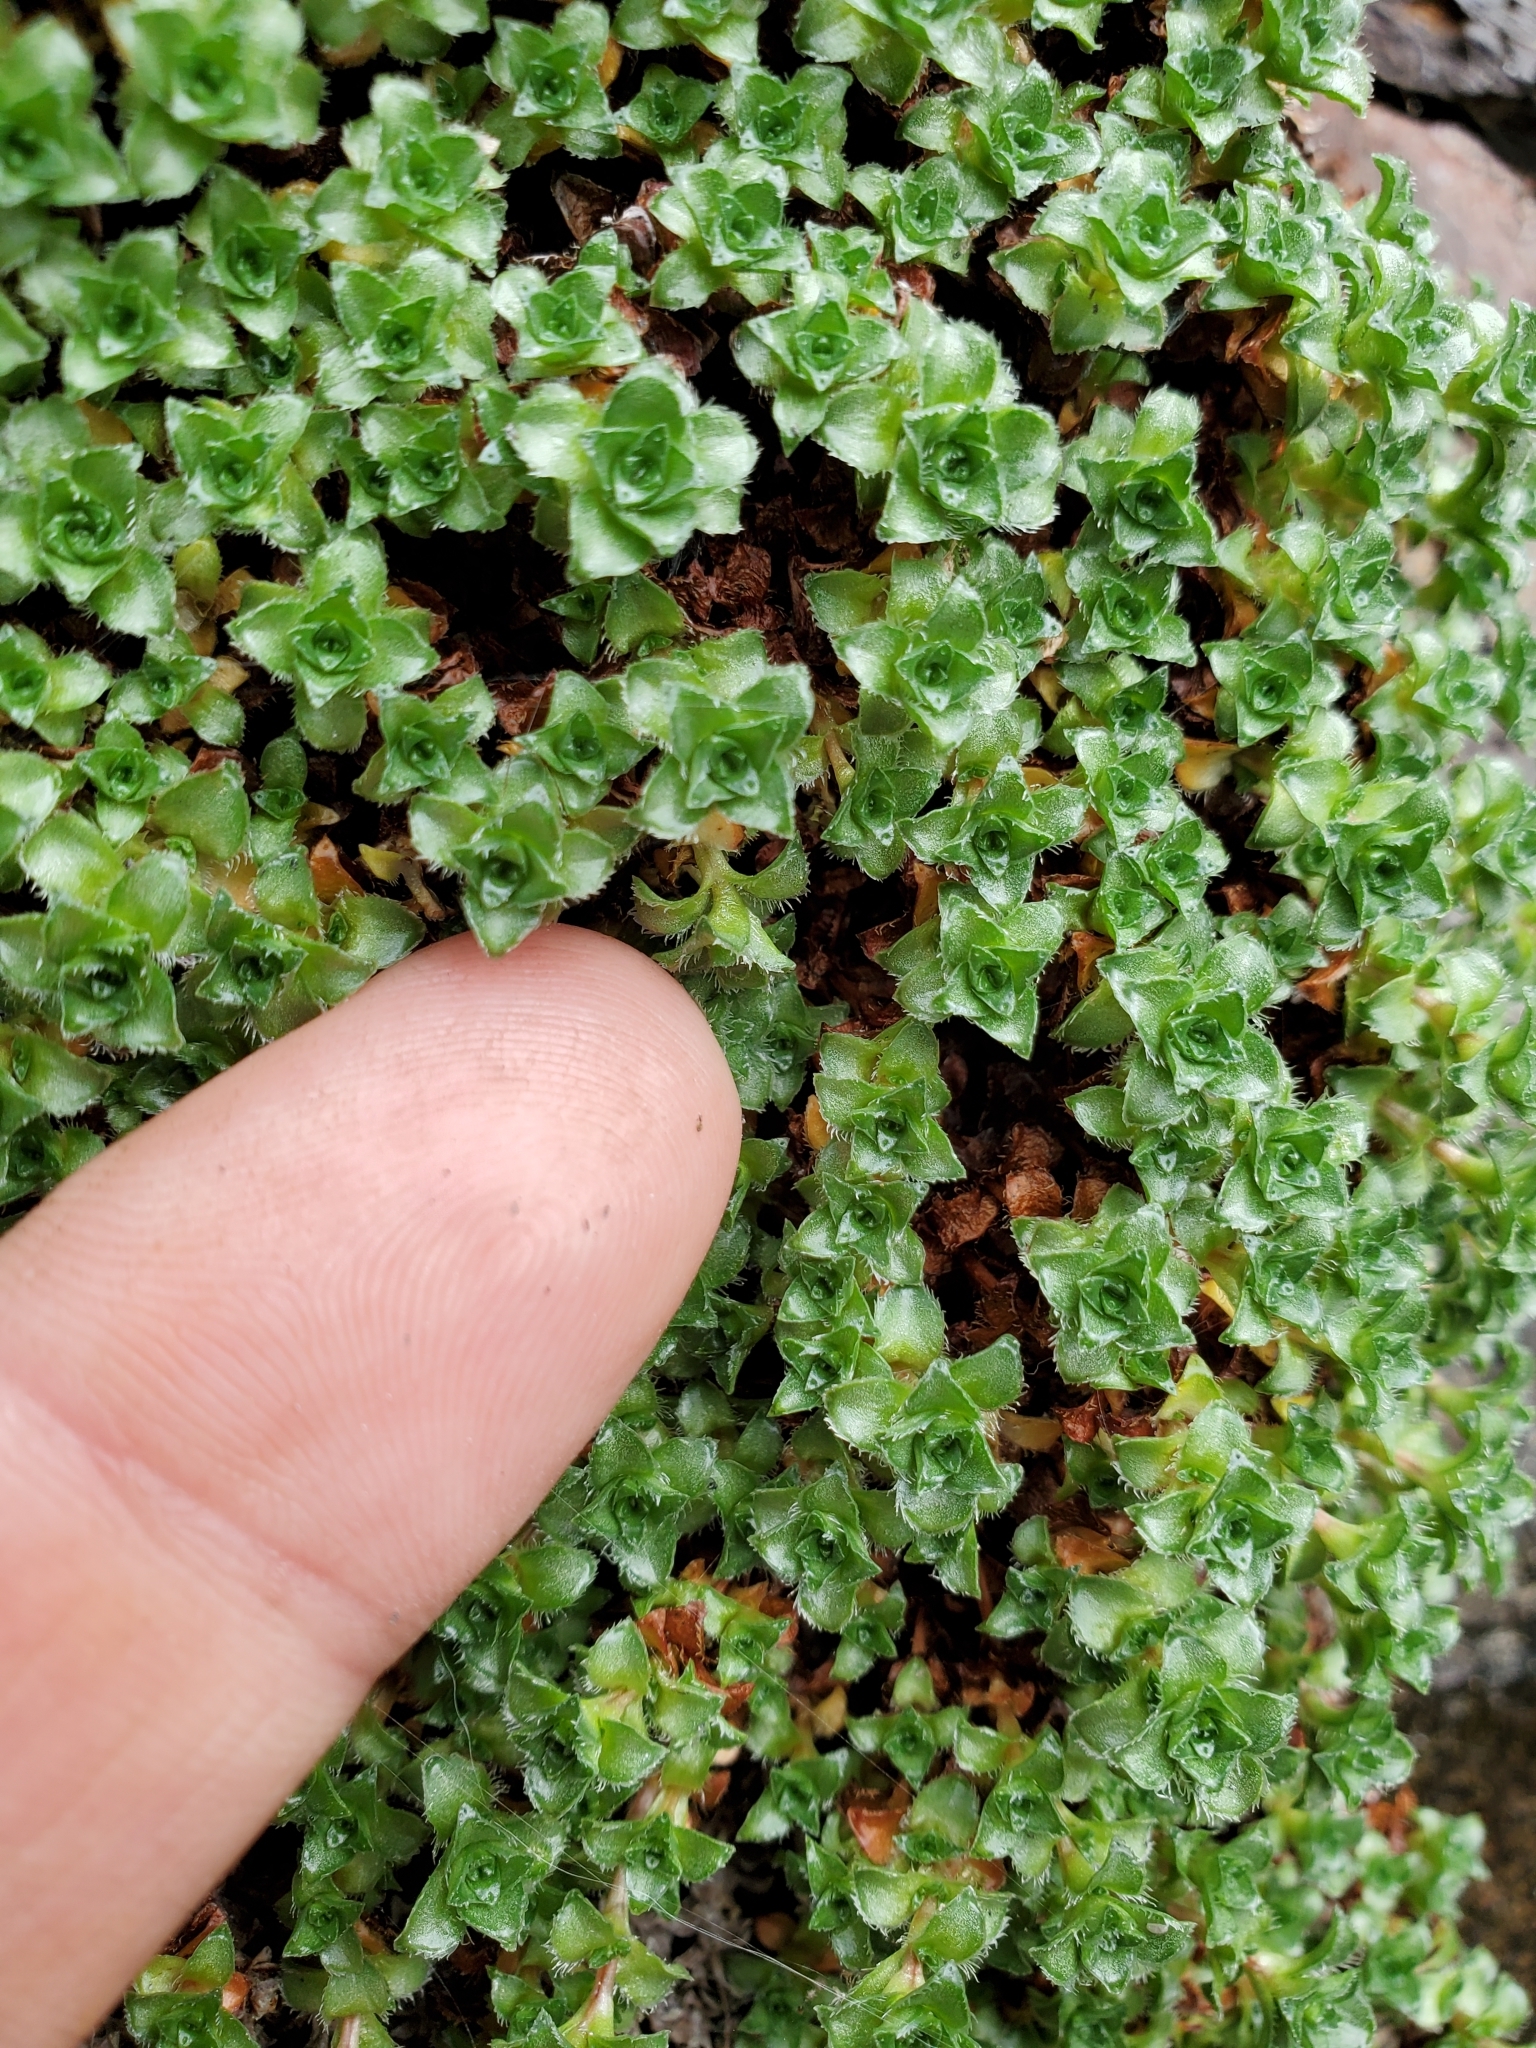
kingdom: Plantae
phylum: Tracheophyta
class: Magnoliopsida
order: Saxifragales
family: Saxifragaceae
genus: Saxifraga
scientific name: Saxifraga oppositifolia
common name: Purple saxifrage
